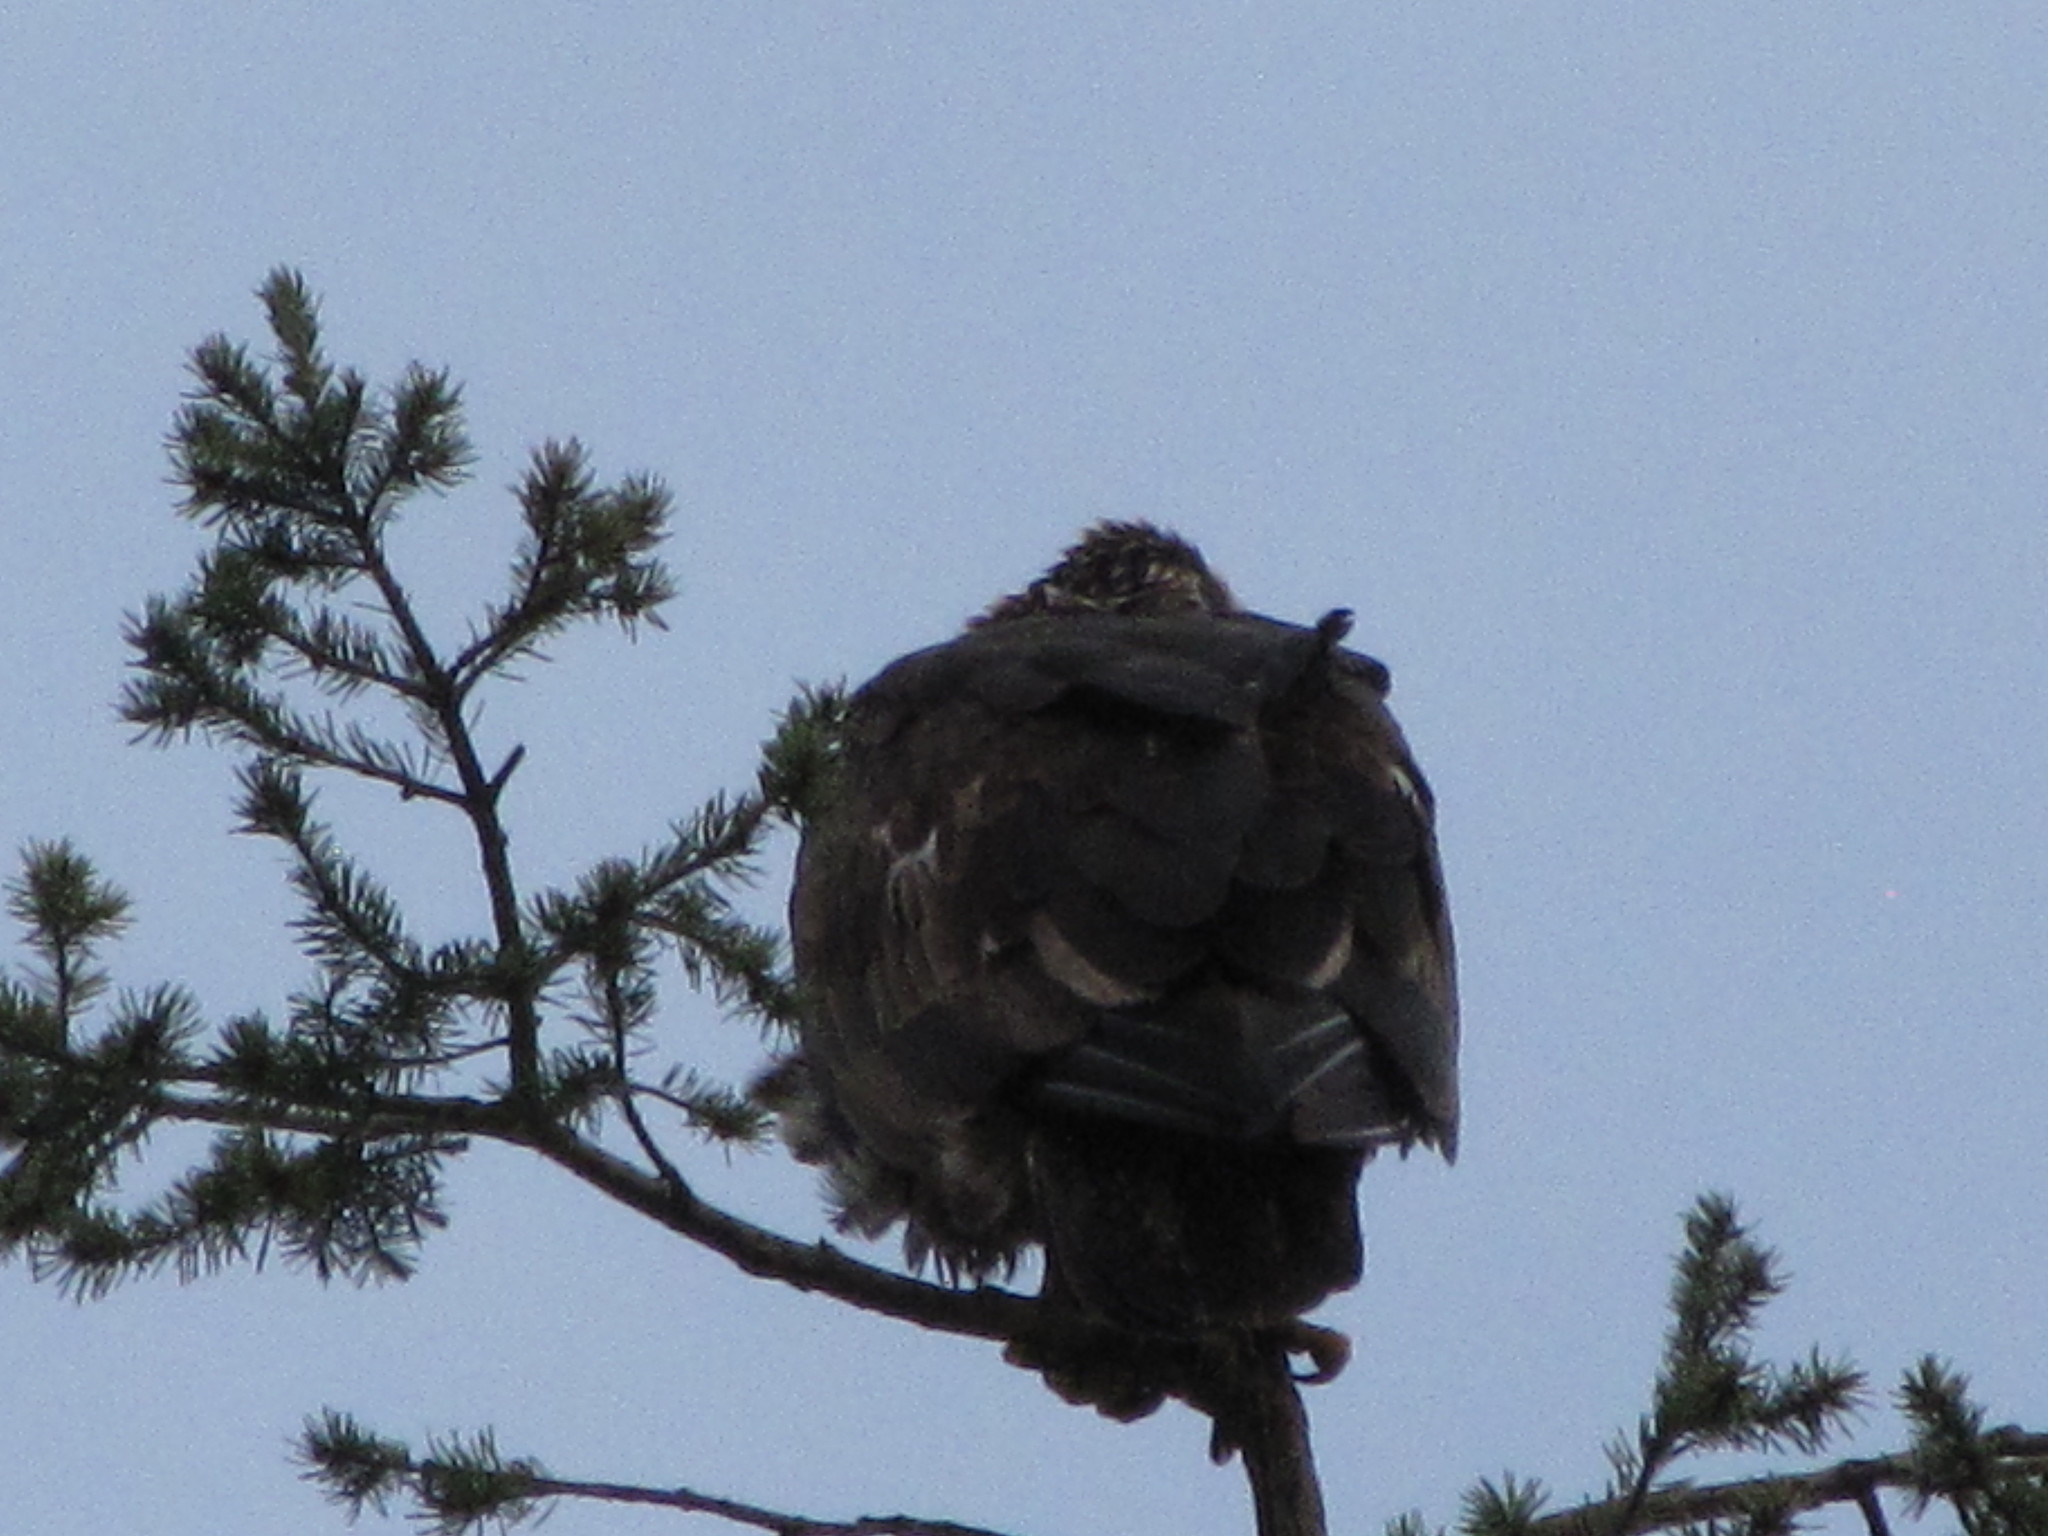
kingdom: Animalia
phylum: Chordata
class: Aves
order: Accipitriformes
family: Accipitridae
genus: Haliaeetus
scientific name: Haliaeetus leucocephalus
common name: Bald eagle
